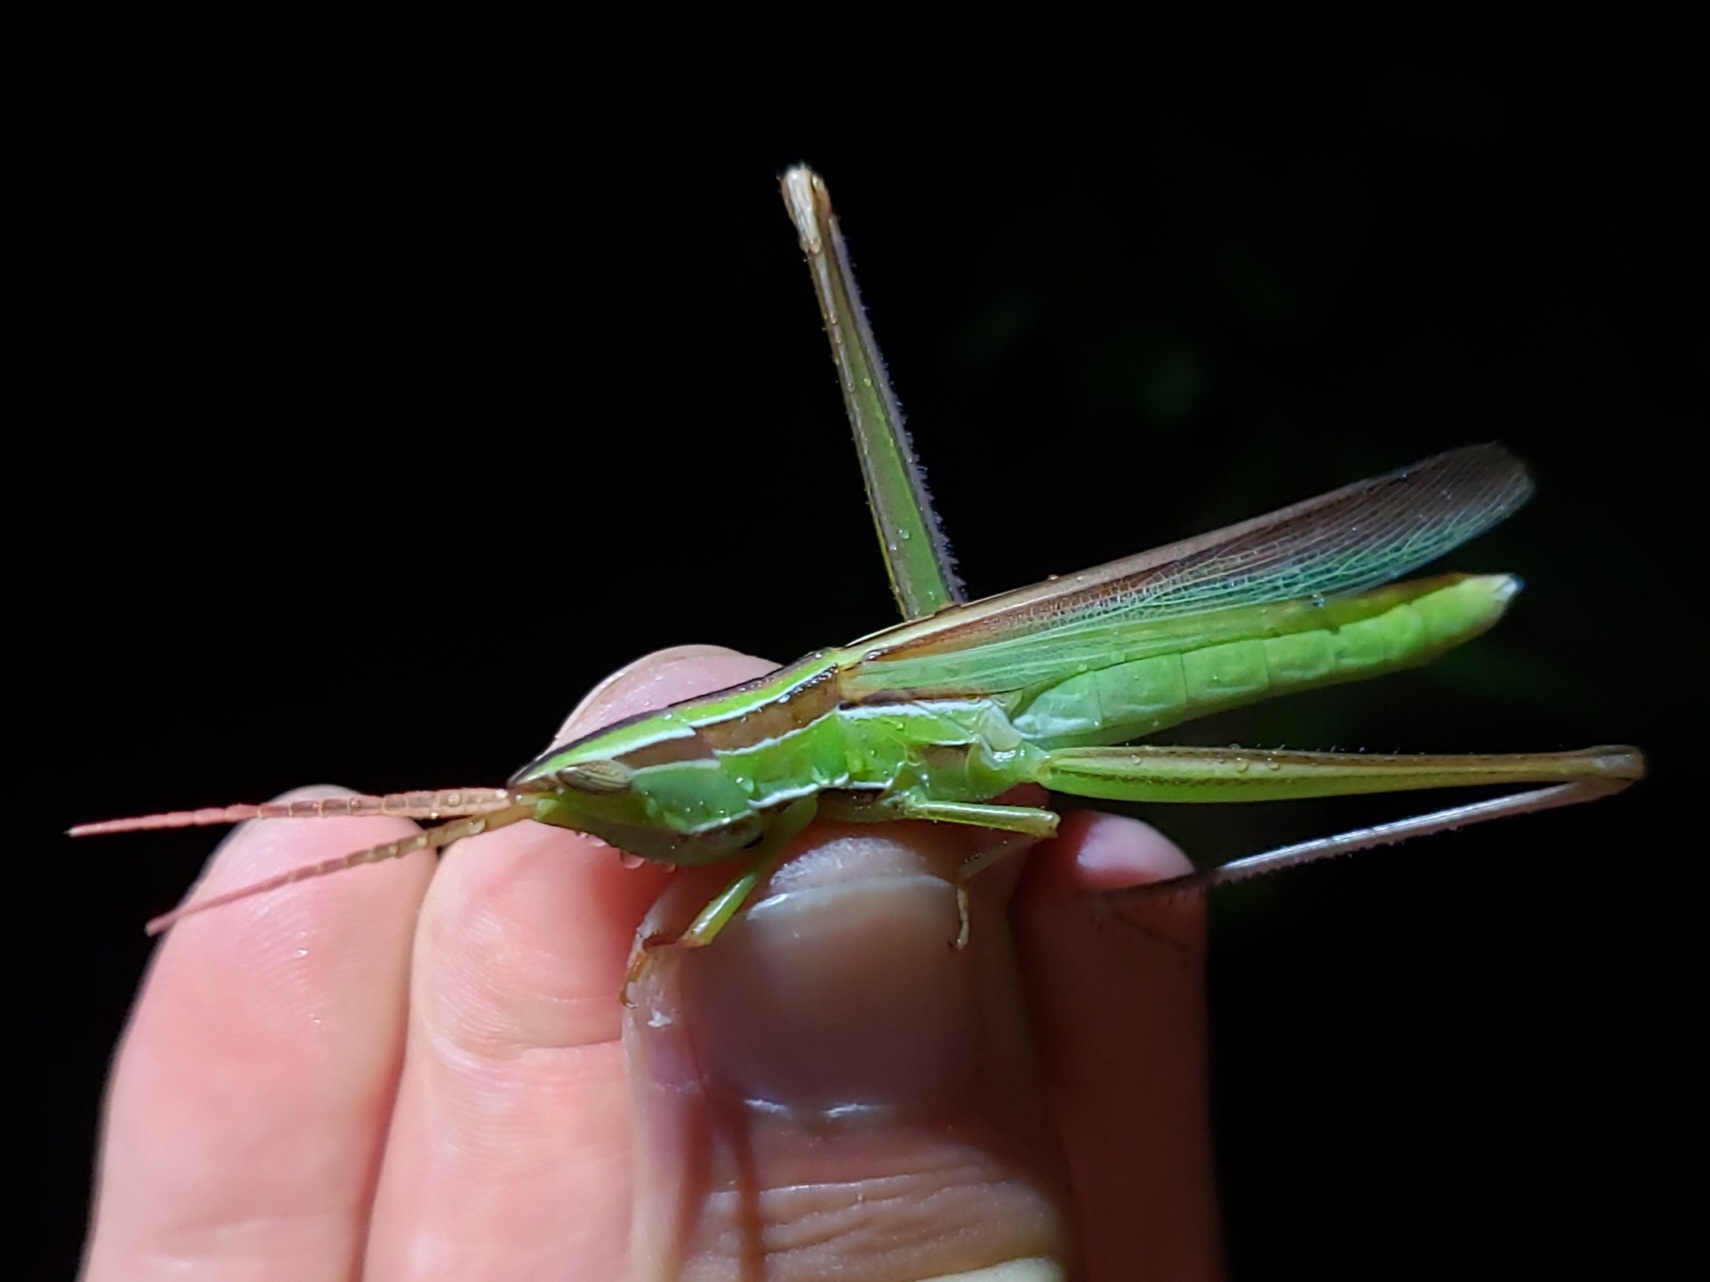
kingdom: Animalia
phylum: Arthropoda
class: Insecta
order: Orthoptera
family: Acrididae
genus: Mermiria
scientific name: Mermiria picta
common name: Lively mermiria grasshopper
